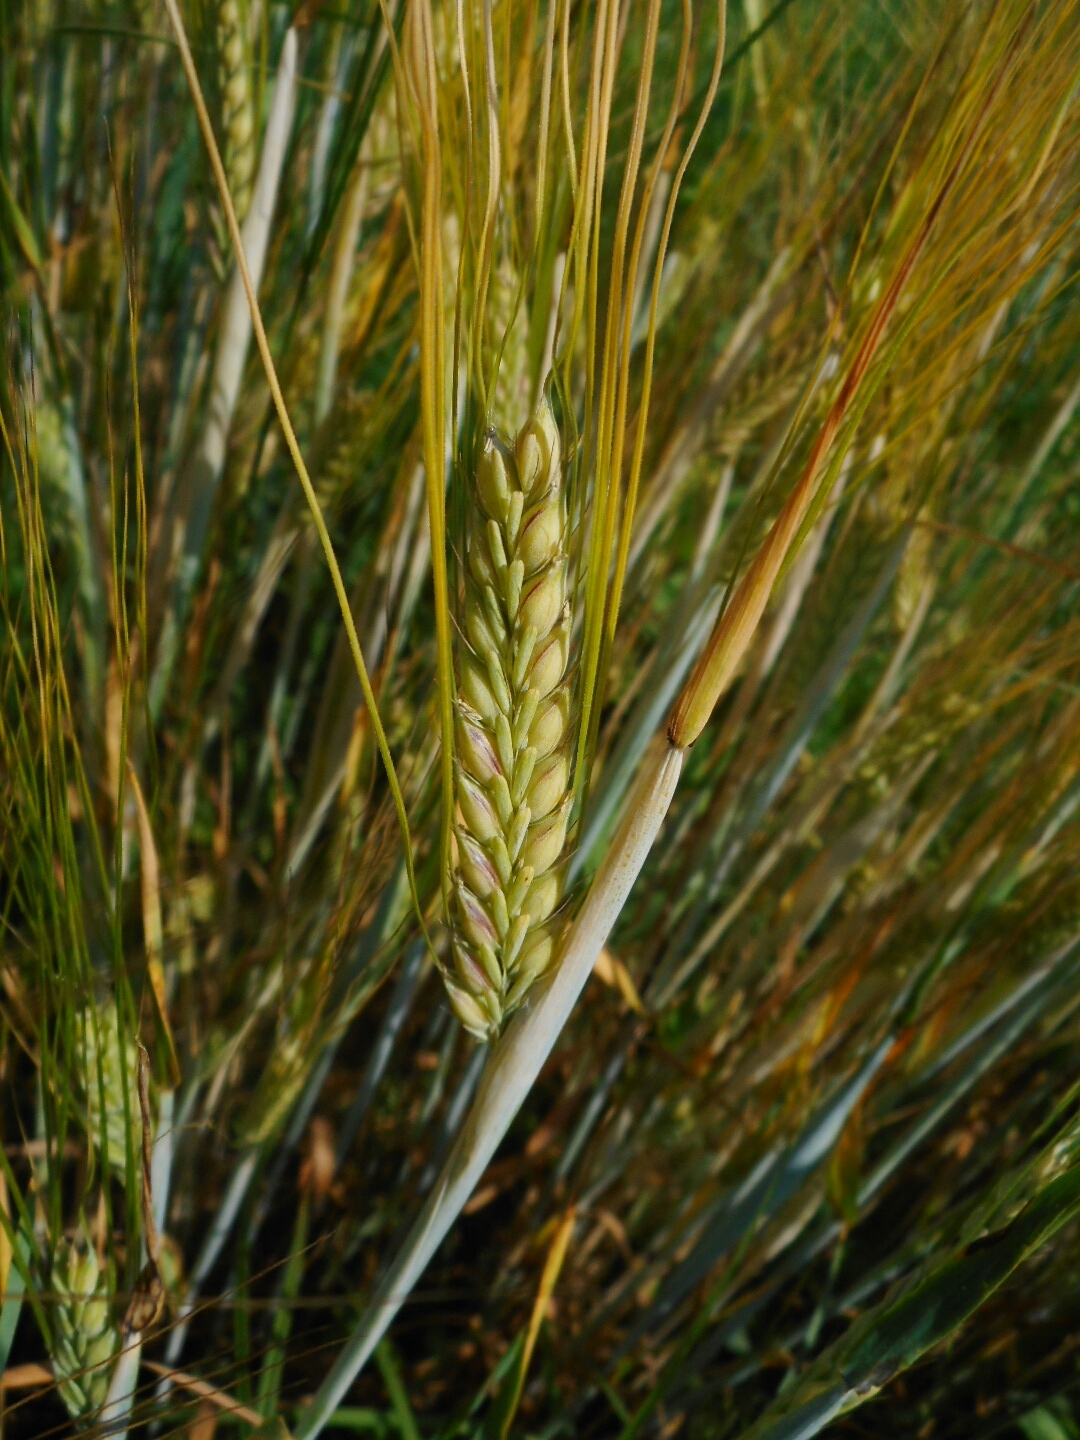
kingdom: Plantae
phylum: Tracheophyta
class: Liliopsida
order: Poales
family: Poaceae
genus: Hordeum
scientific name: Hordeum vulgare
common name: Common barley
